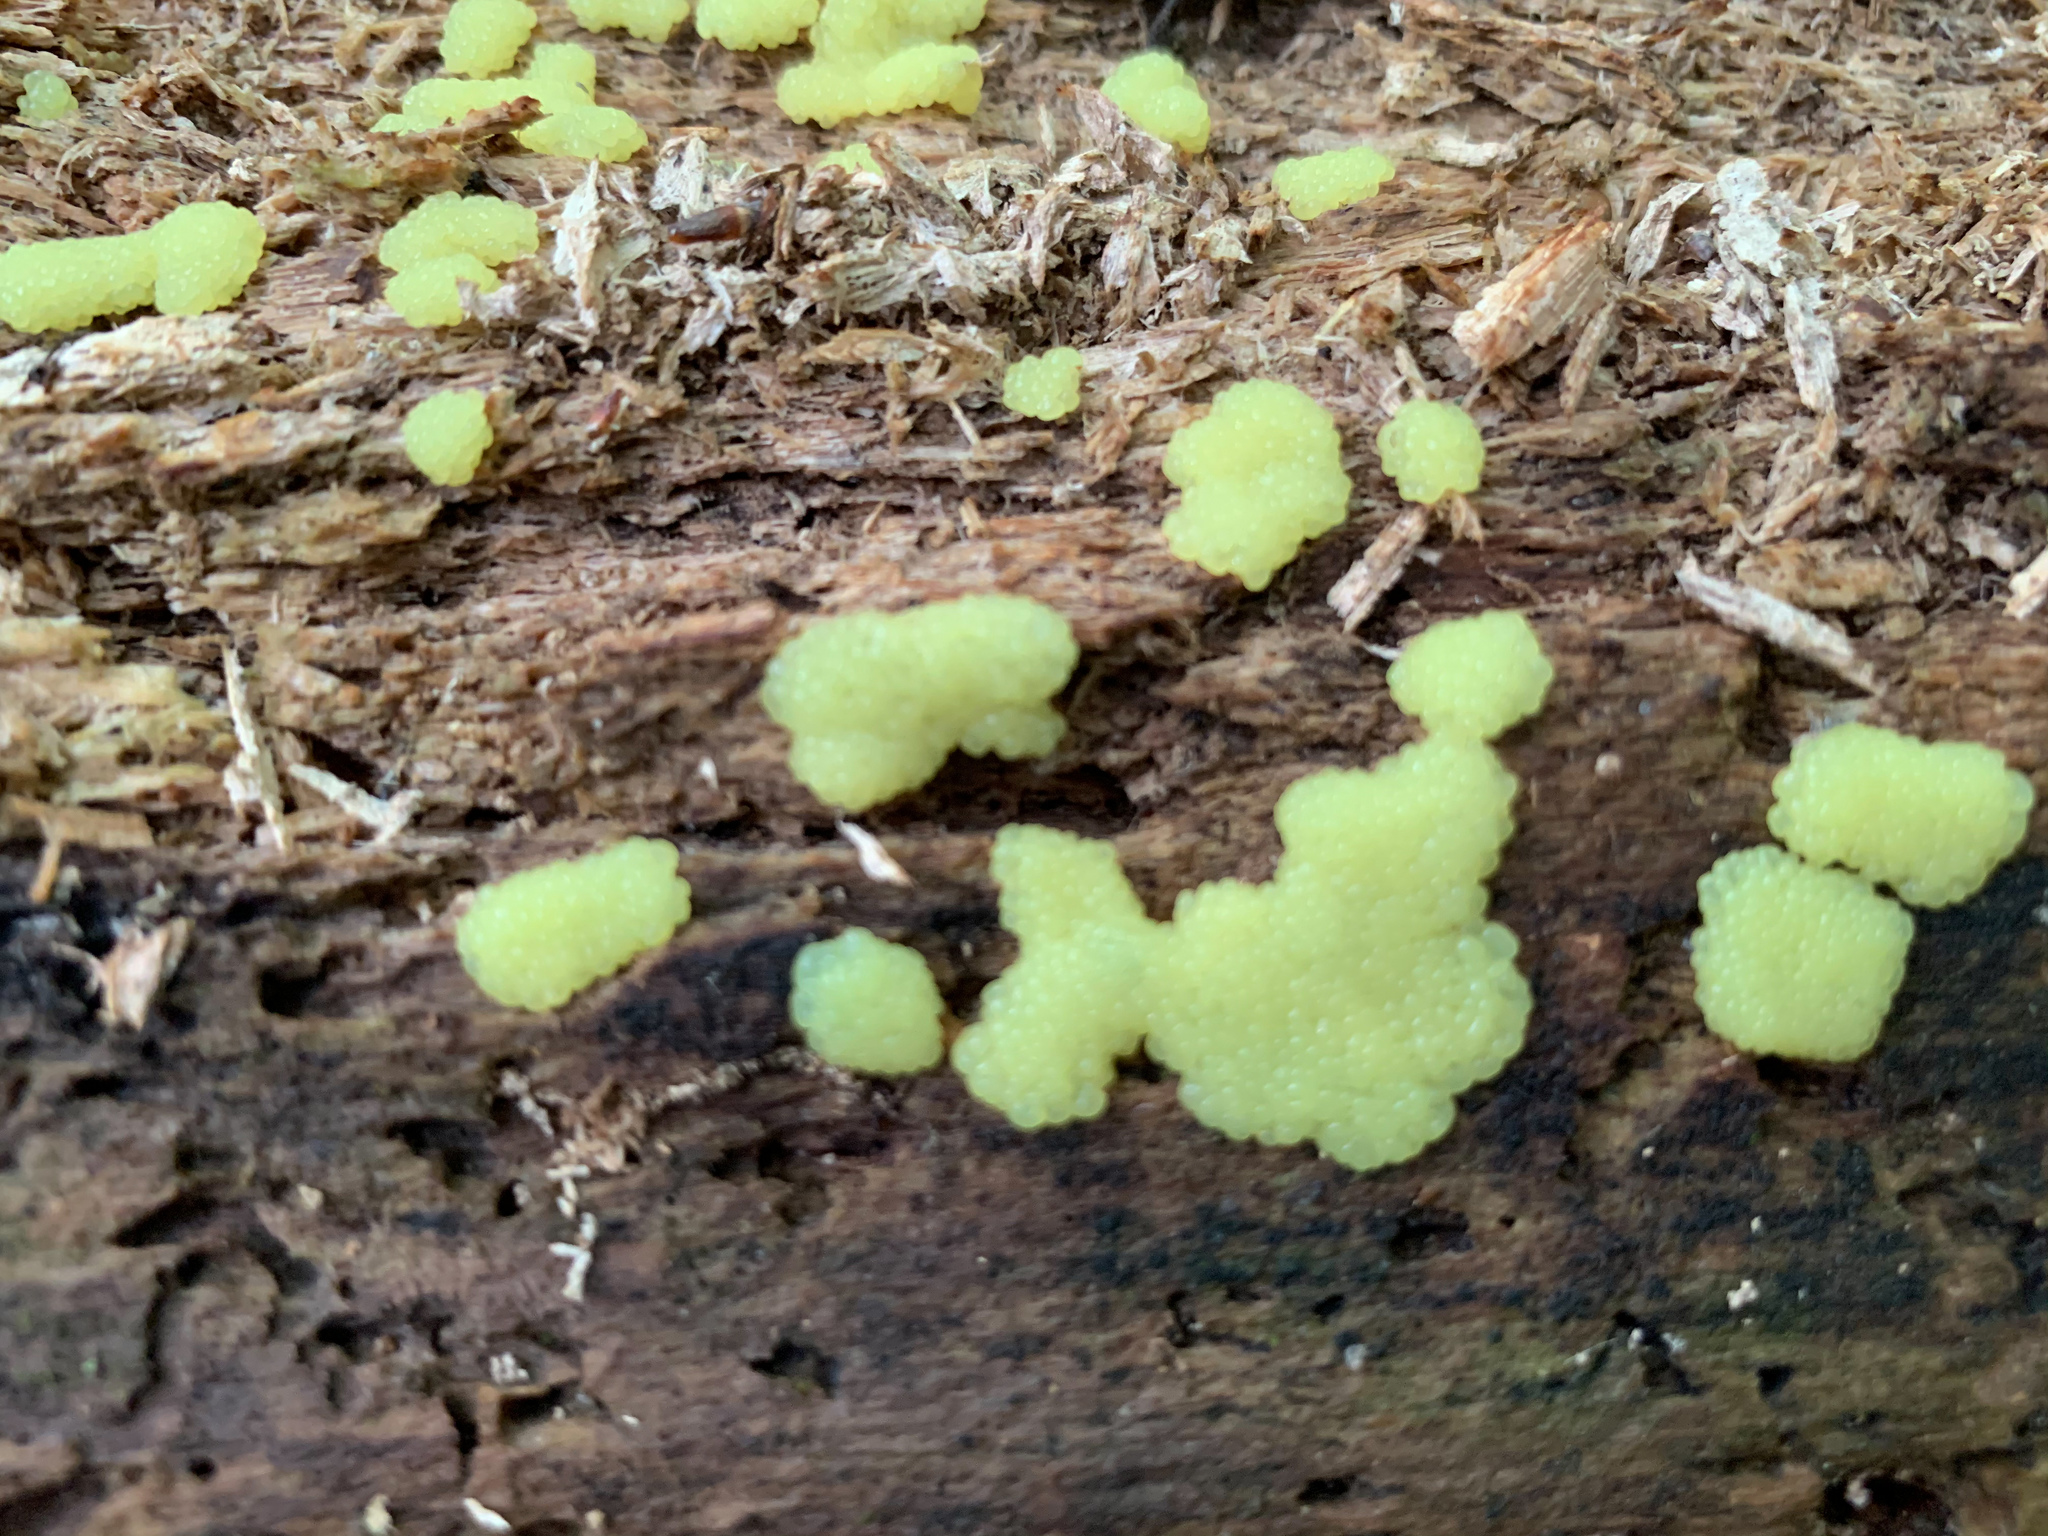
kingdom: Protozoa
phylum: Mycetozoa
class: Myxomycetes
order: Stemonitidales
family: Stemonitidaceae
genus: Stemonitis
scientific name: Stemonitis splendens
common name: Chocolate tube slime
